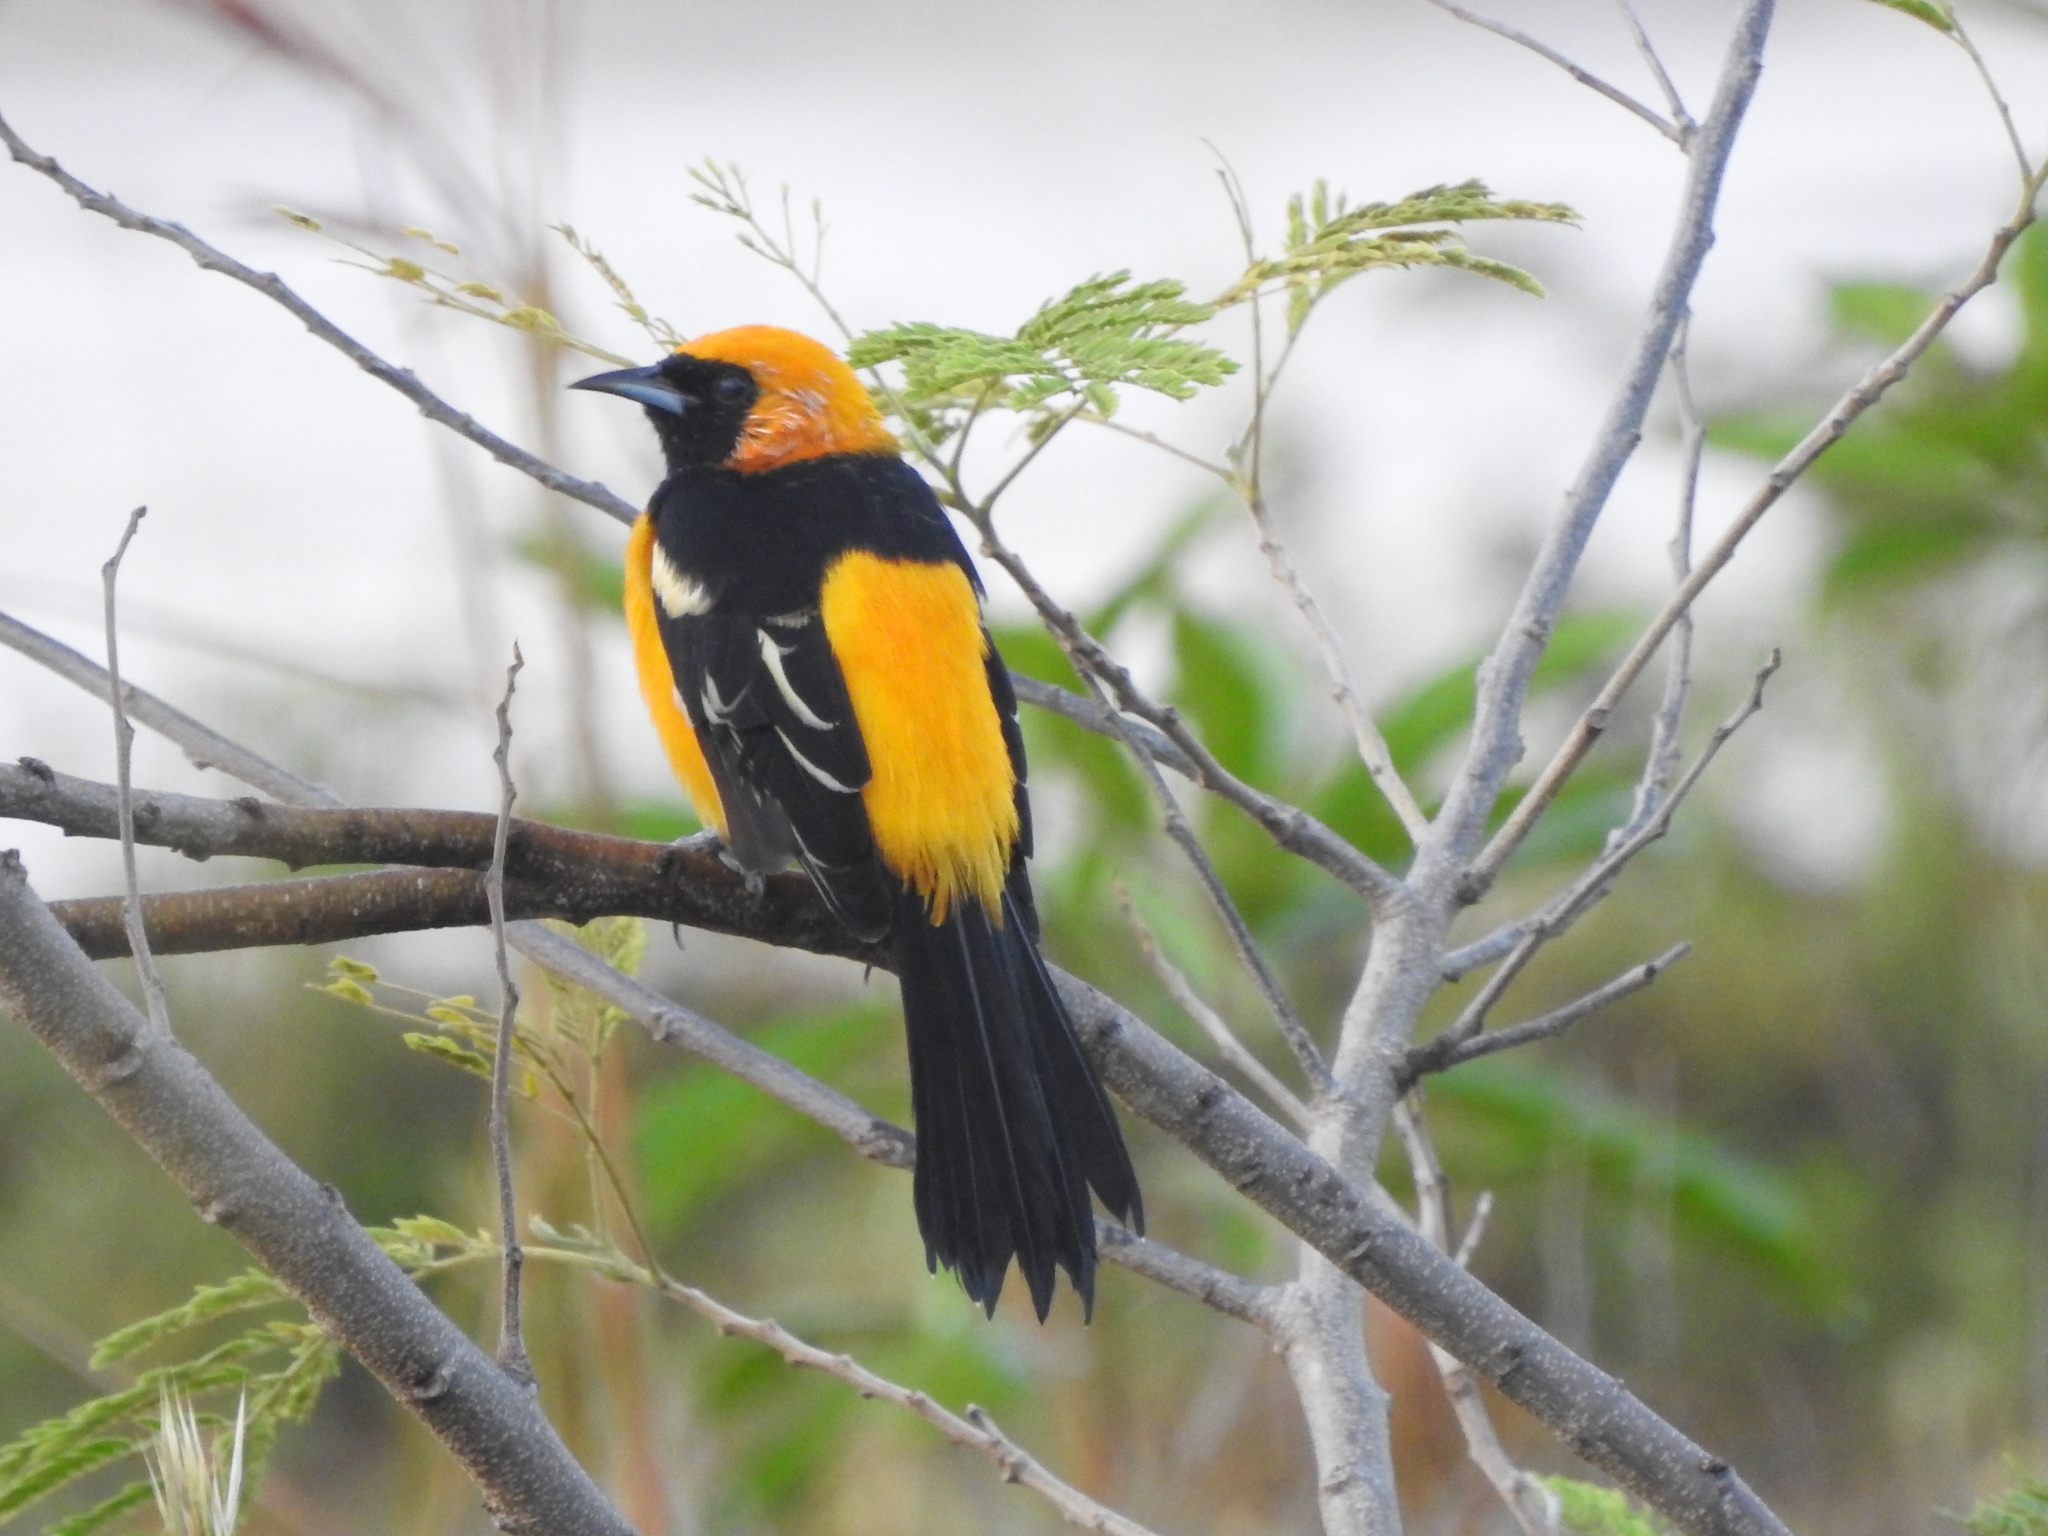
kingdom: Animalia
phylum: Chordata
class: Aves
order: Passeriformes
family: Icteridae
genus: Icterus
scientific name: Icterus cucullatus
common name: Hooded oriole
